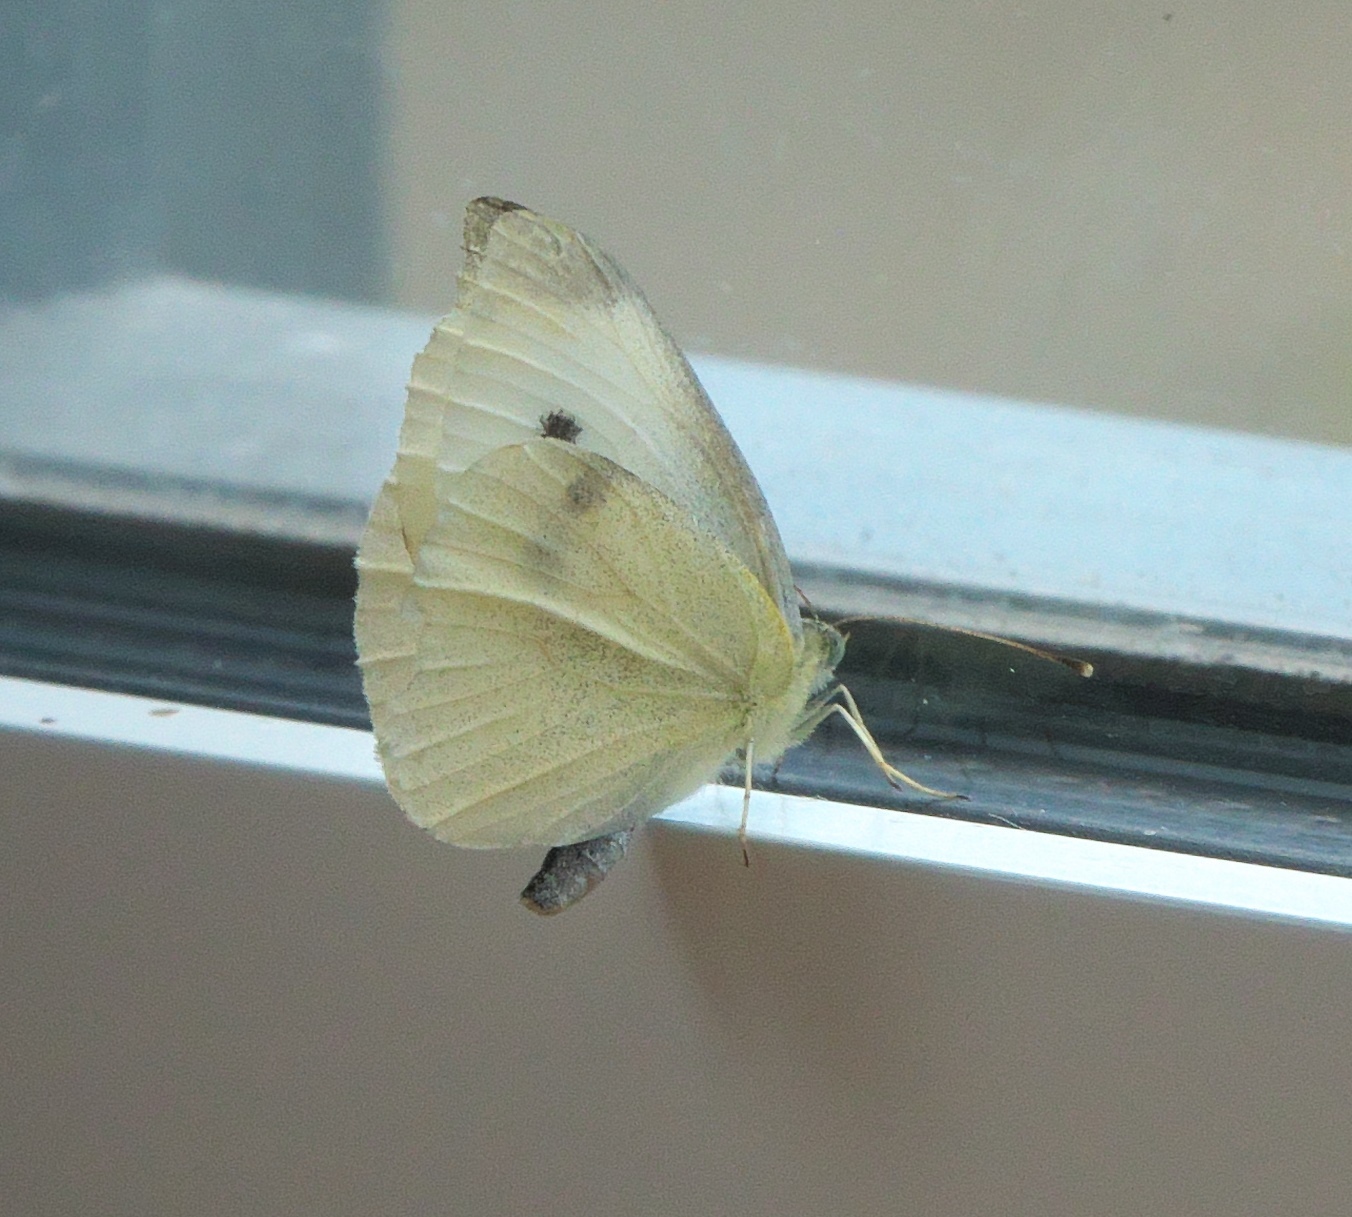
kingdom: Animalia
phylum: Arthropoda
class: Insecta
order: Lepidoptera
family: Pieridae
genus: Pieris
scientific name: Pieris rapae
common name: Small white
